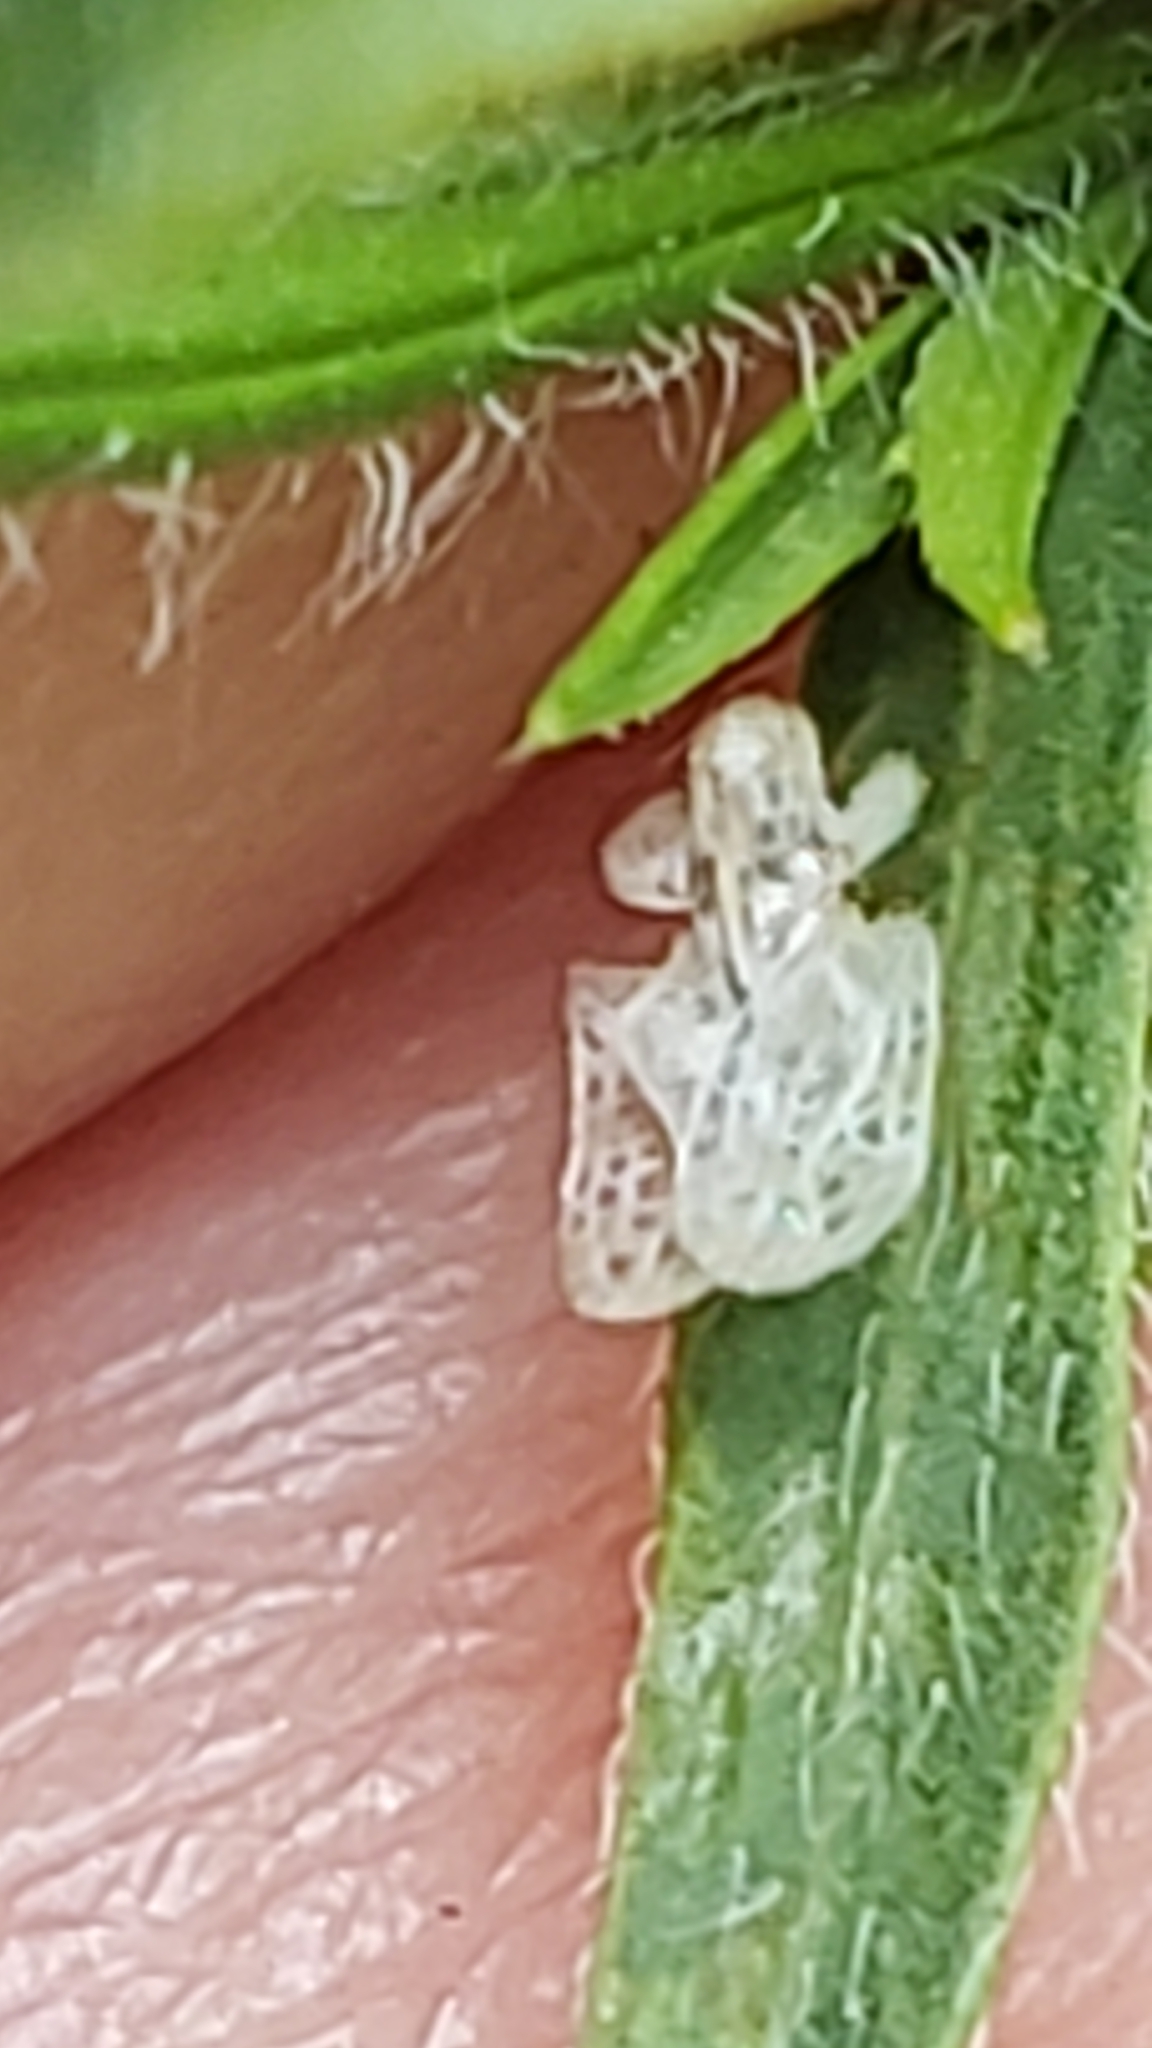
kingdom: Animalia
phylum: Arthropoda
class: Insecta
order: Hemiptera
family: Tingidae
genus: Corythucha
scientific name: Corythucha marmorata
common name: Chrysanthemum lace bug
